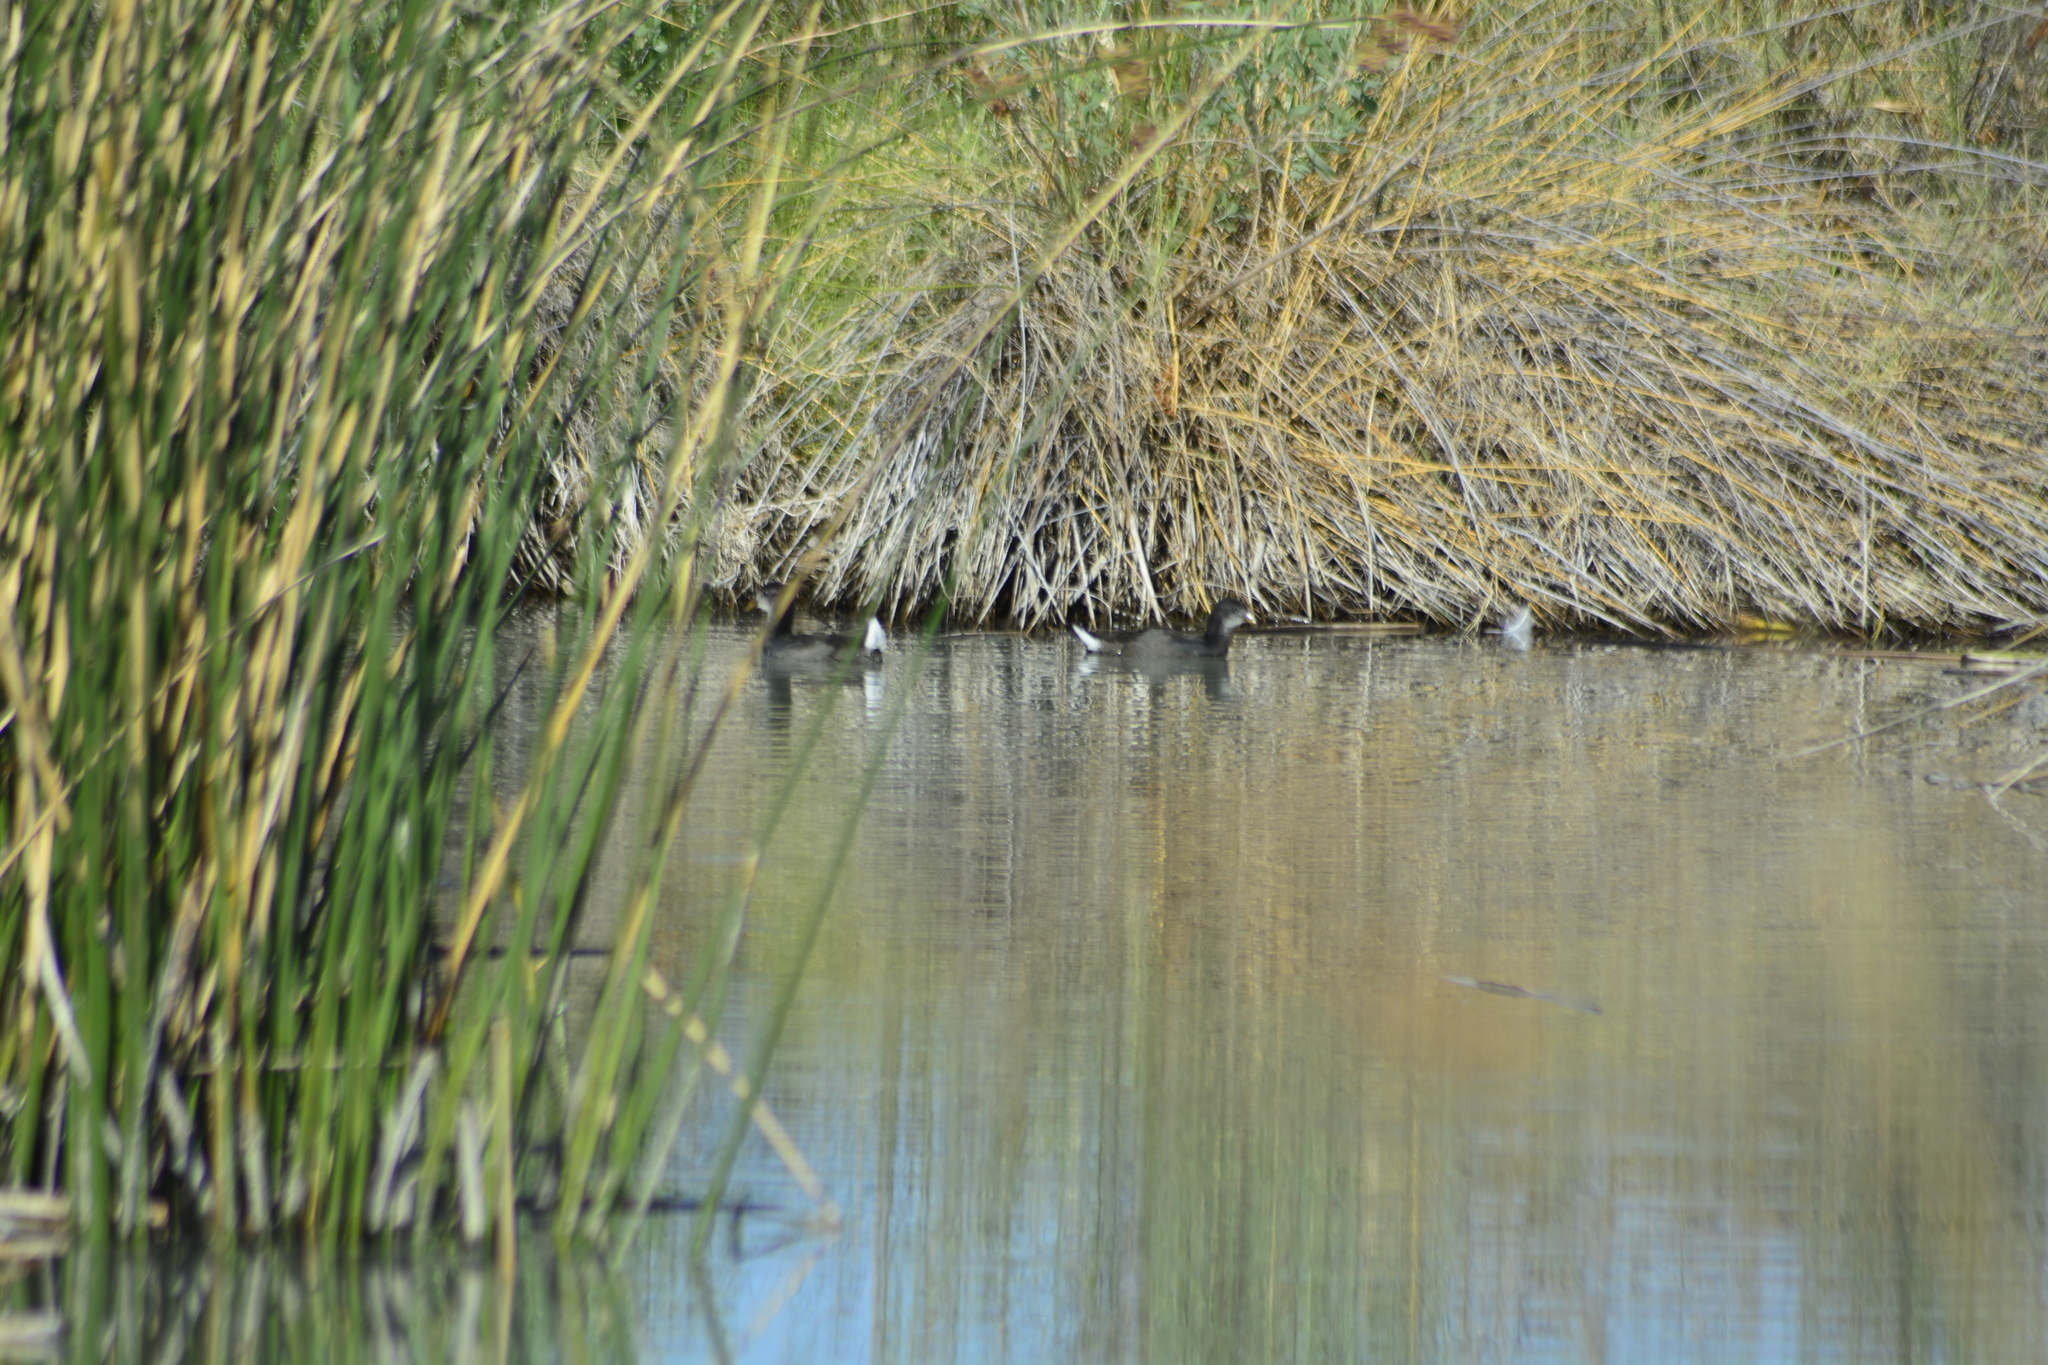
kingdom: Animalia
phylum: Chordata
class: Aves
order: Gruiformes
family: Rallidae
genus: Fulica
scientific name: Fulica rufifrons
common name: Red-fronted coot
